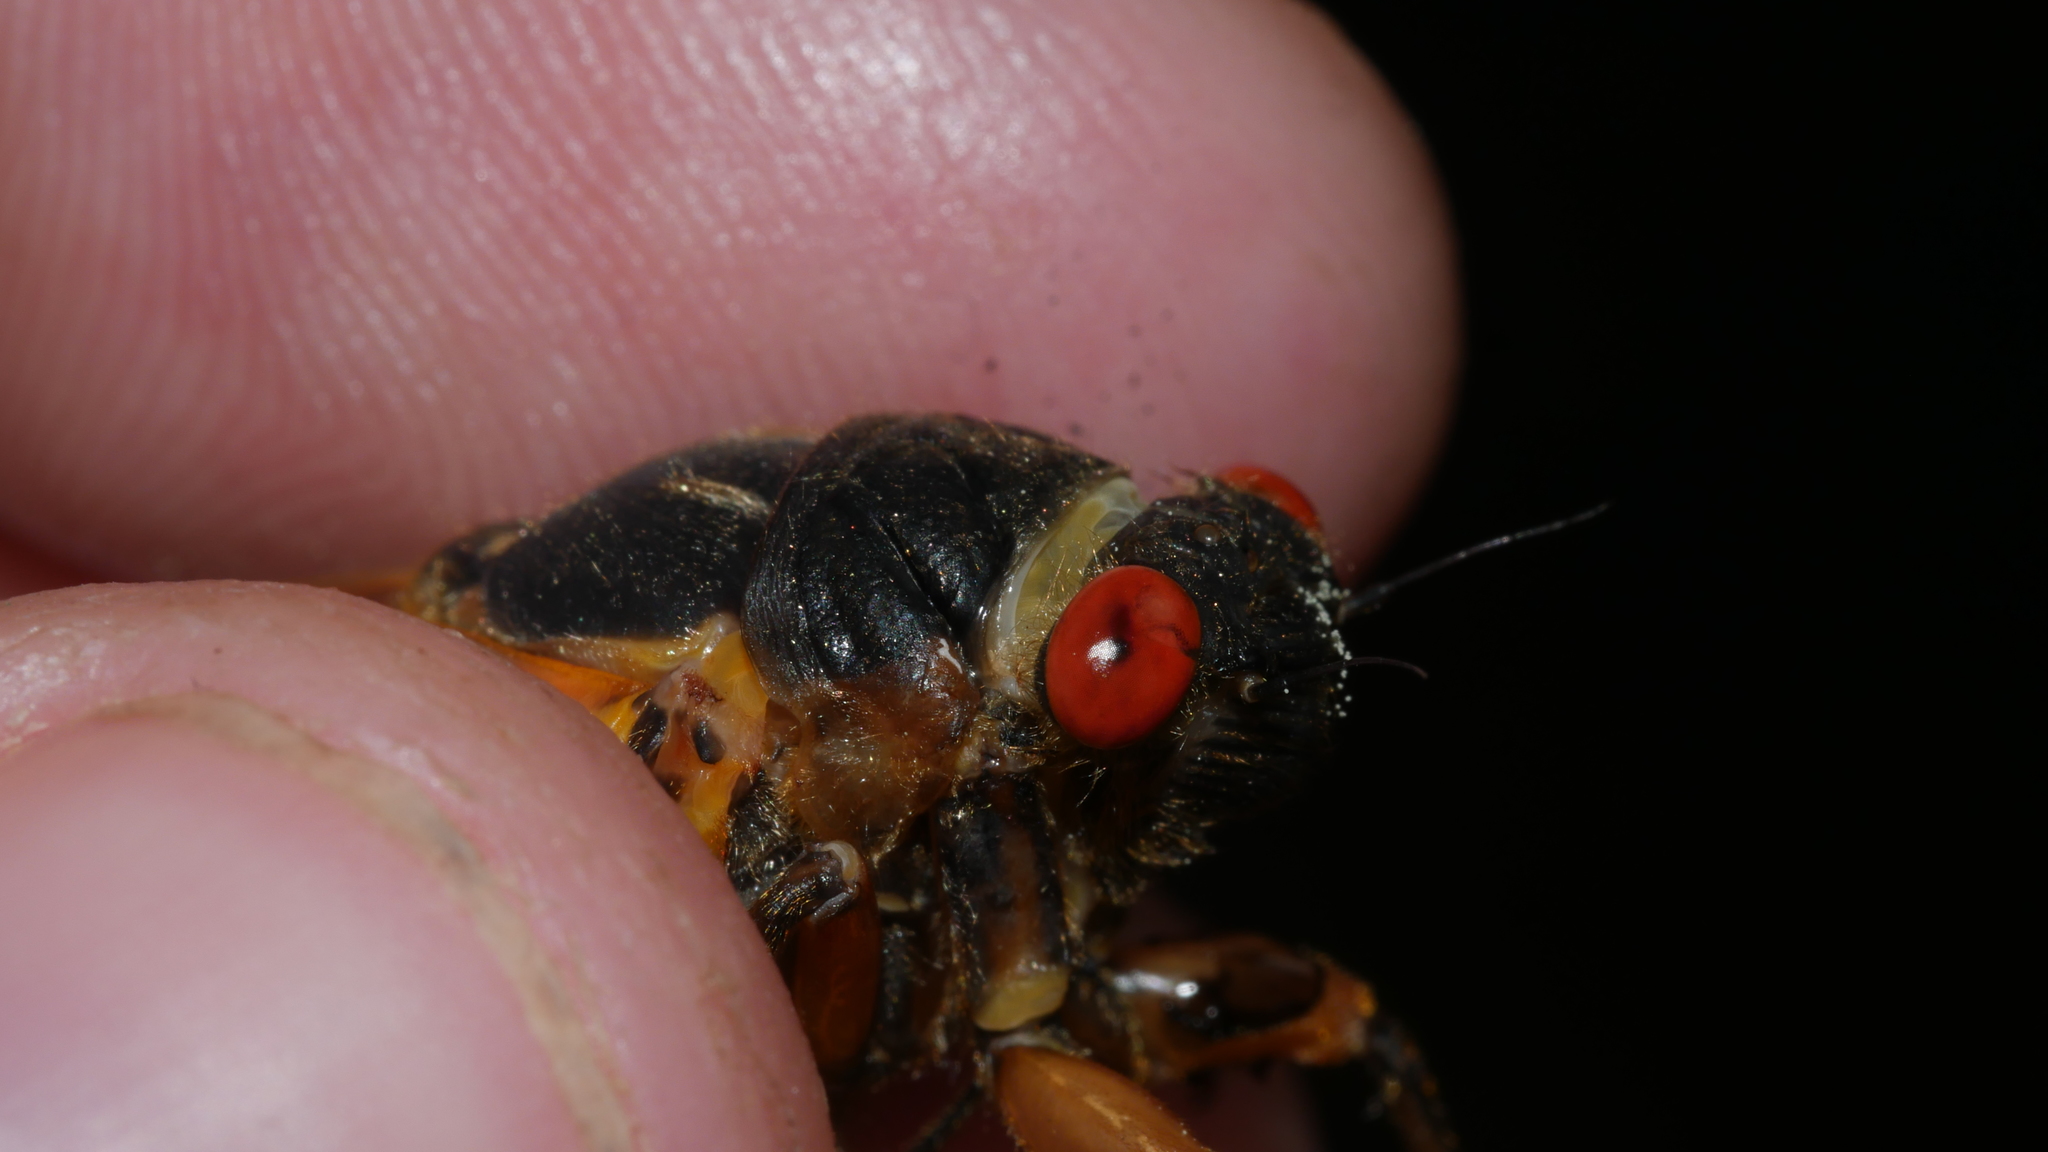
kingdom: Animalia
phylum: Arthropoda
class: Insecta
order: Hemiptera
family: Cicadidae
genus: Magicicada
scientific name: Magicicada septendecim
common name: Periodical cicada
